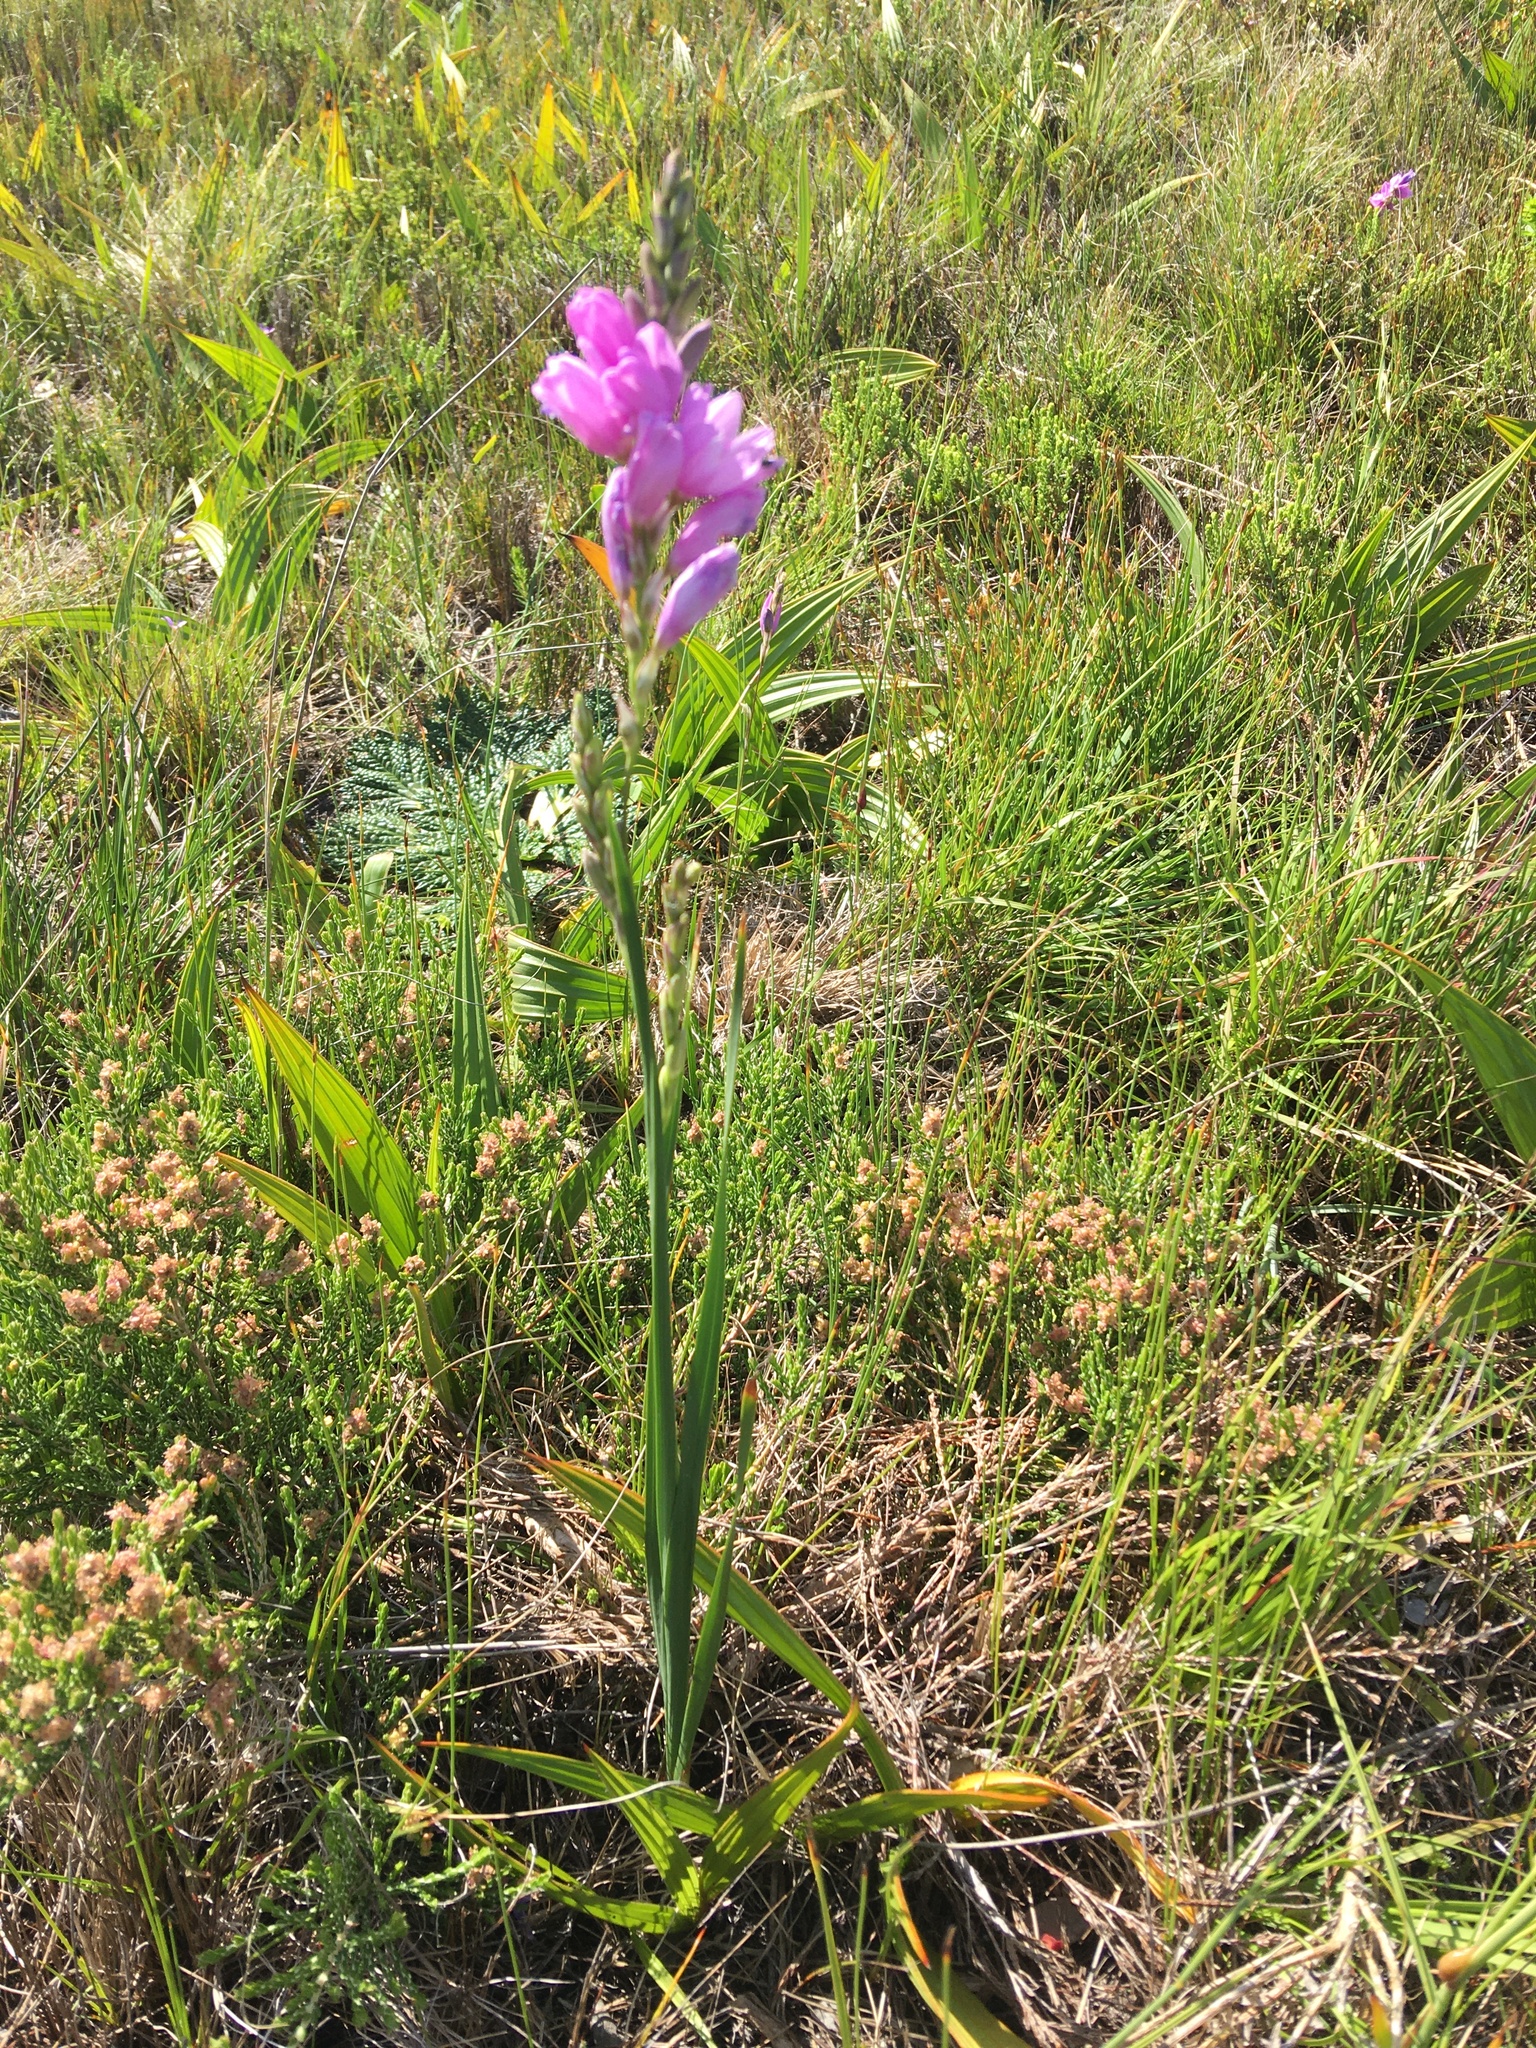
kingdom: Plantae
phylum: Tracheophyta
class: Liliopsida
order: Asparagales
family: Iridaceae
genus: Ixia
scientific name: Ixia polystachya
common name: White-and-yellow-flower cornlily
